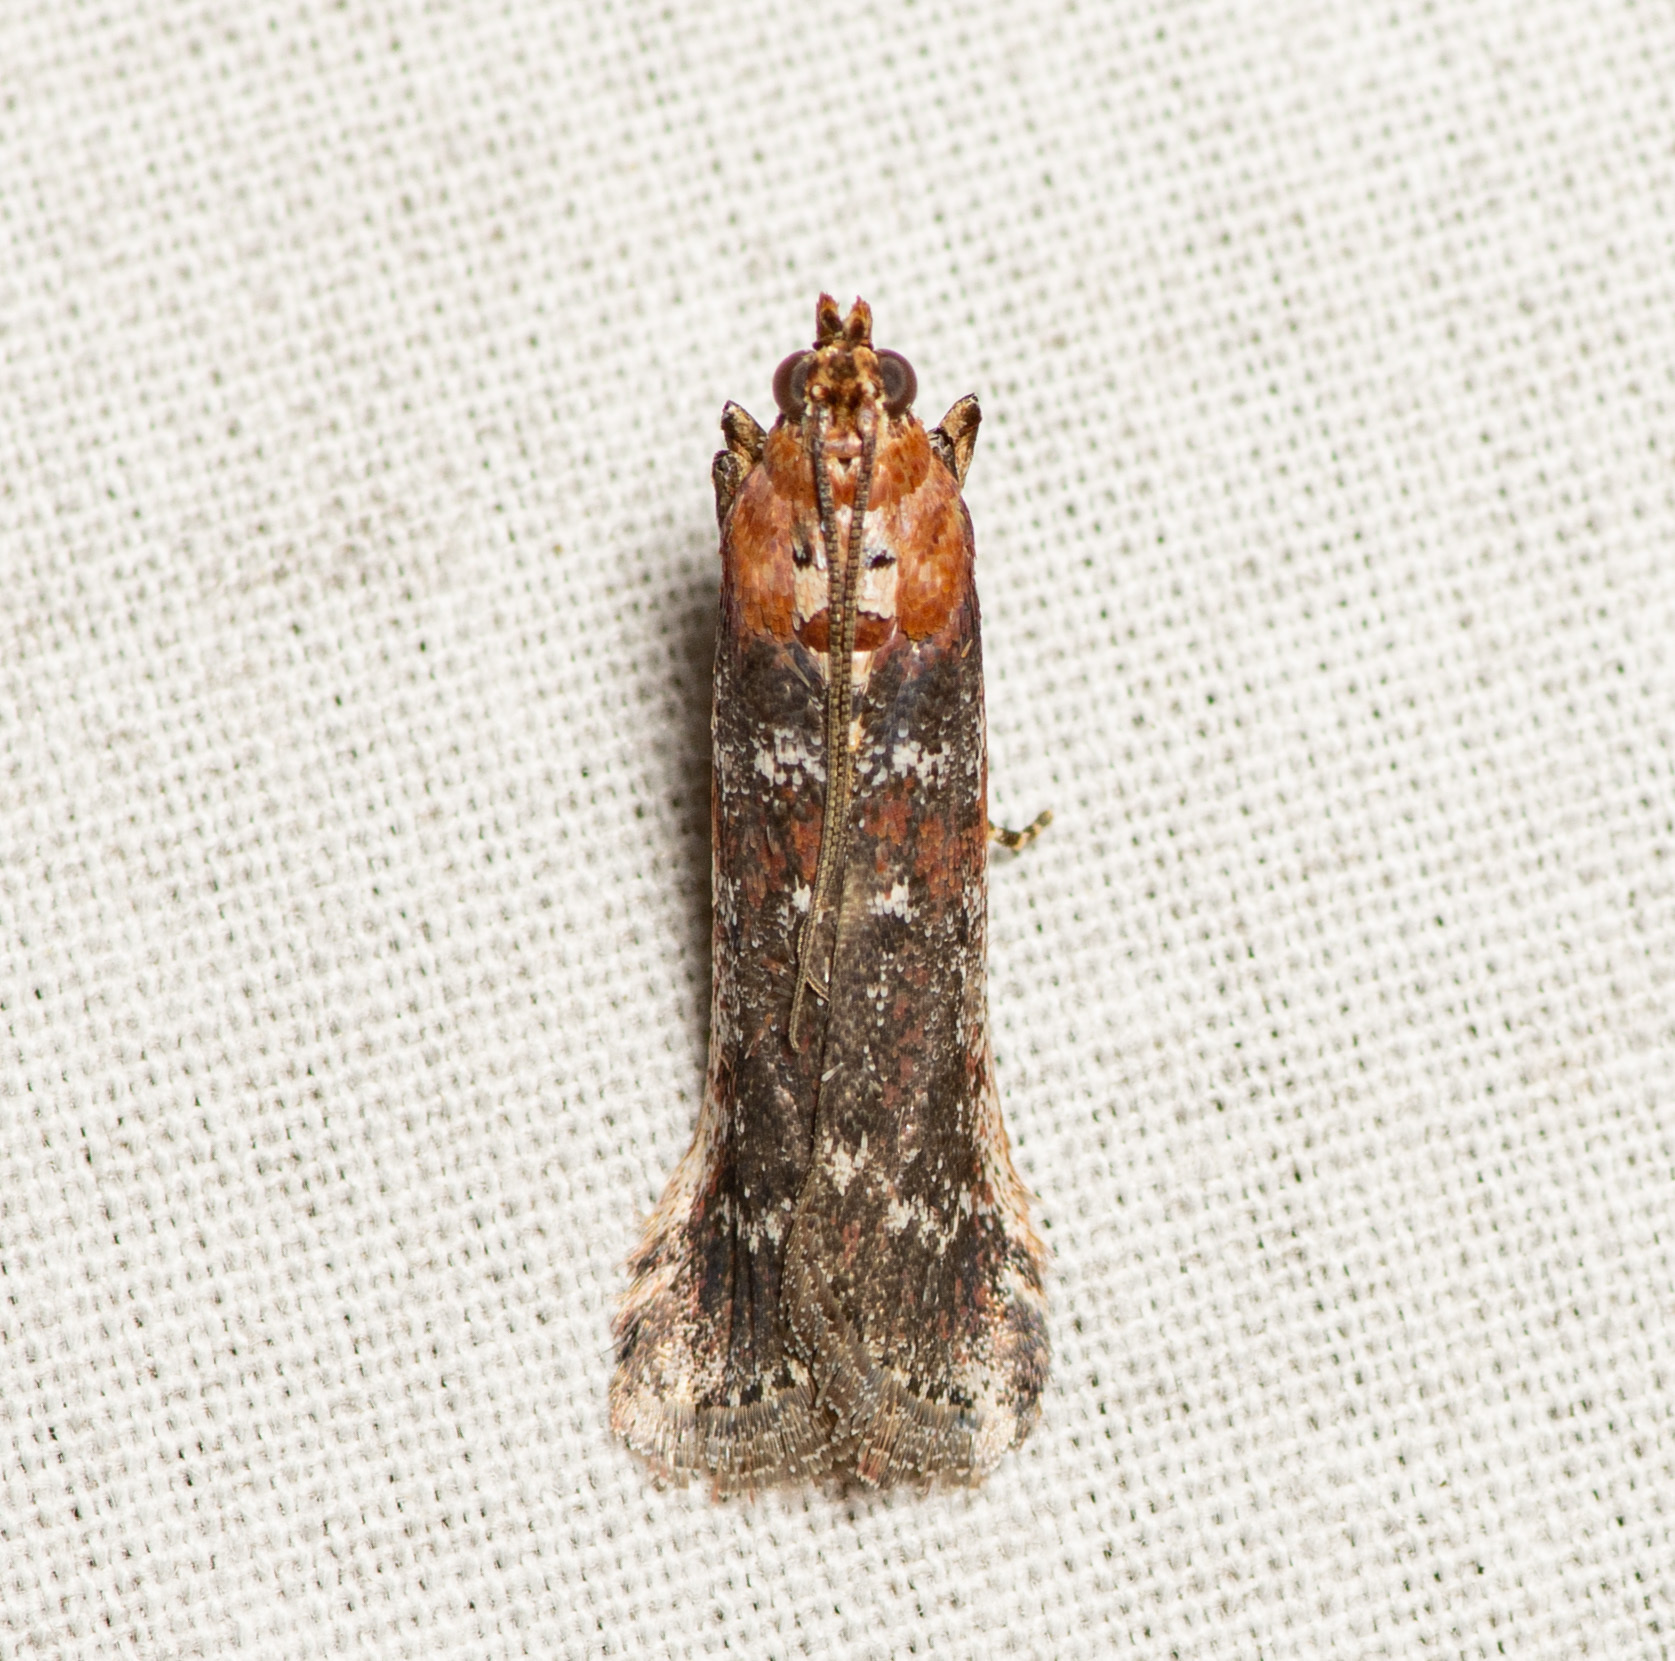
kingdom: Animalia
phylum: Arthropoda
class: Insecta
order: Lepidoptera
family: Pyralidae
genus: Adelphia
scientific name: Adelphia petrella
